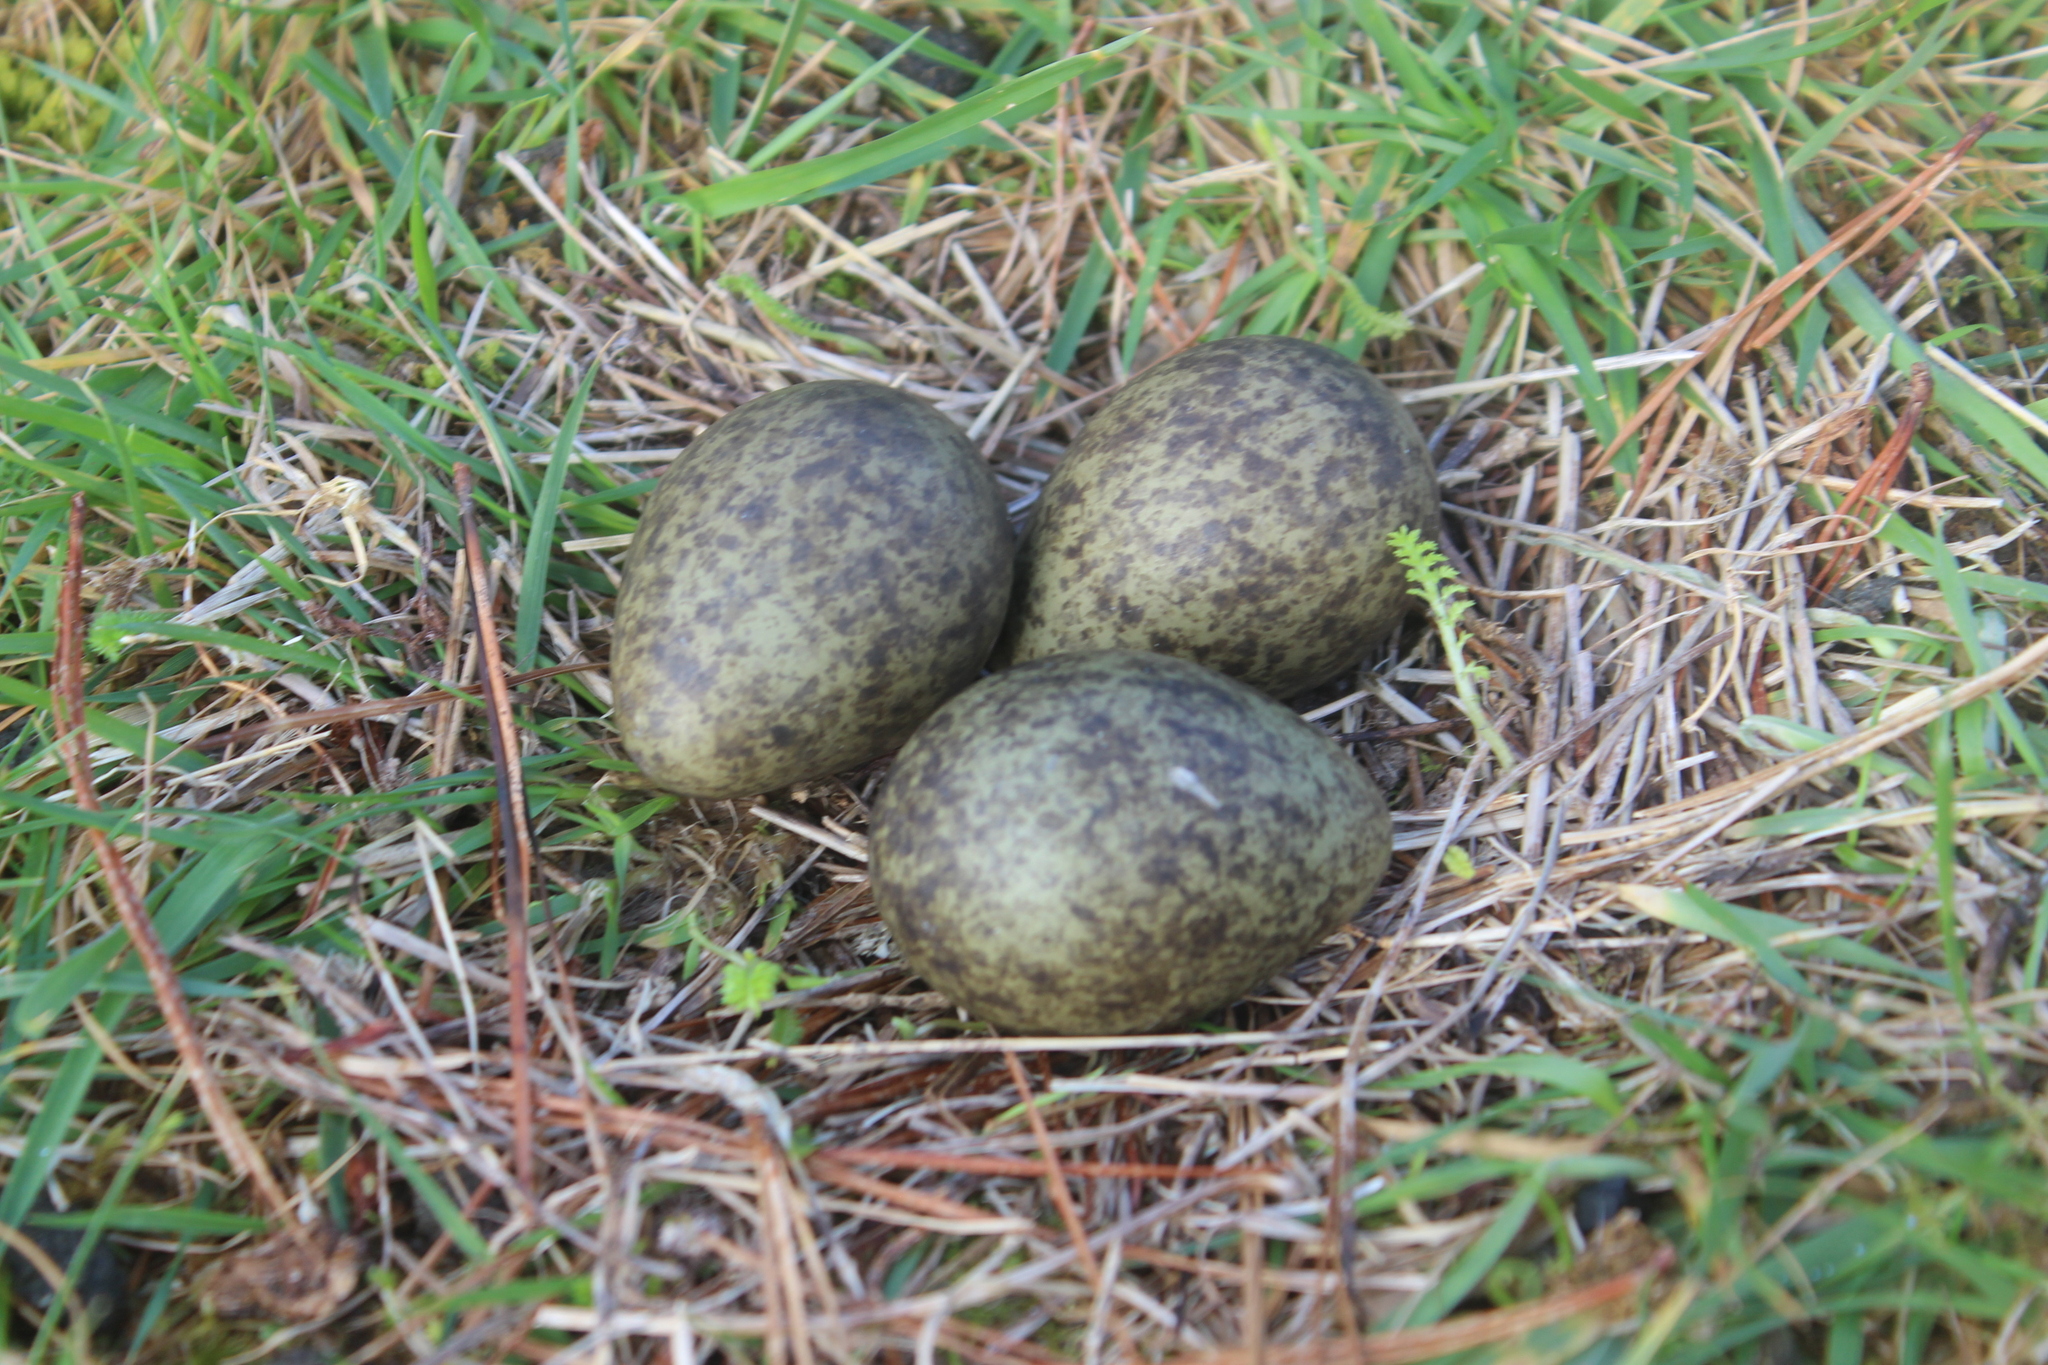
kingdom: Animalia
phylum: Chordata
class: Aves
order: Charadriiformes
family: Charadriidae
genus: Vanellus
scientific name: Vanellus miles
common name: Masked lapwing
